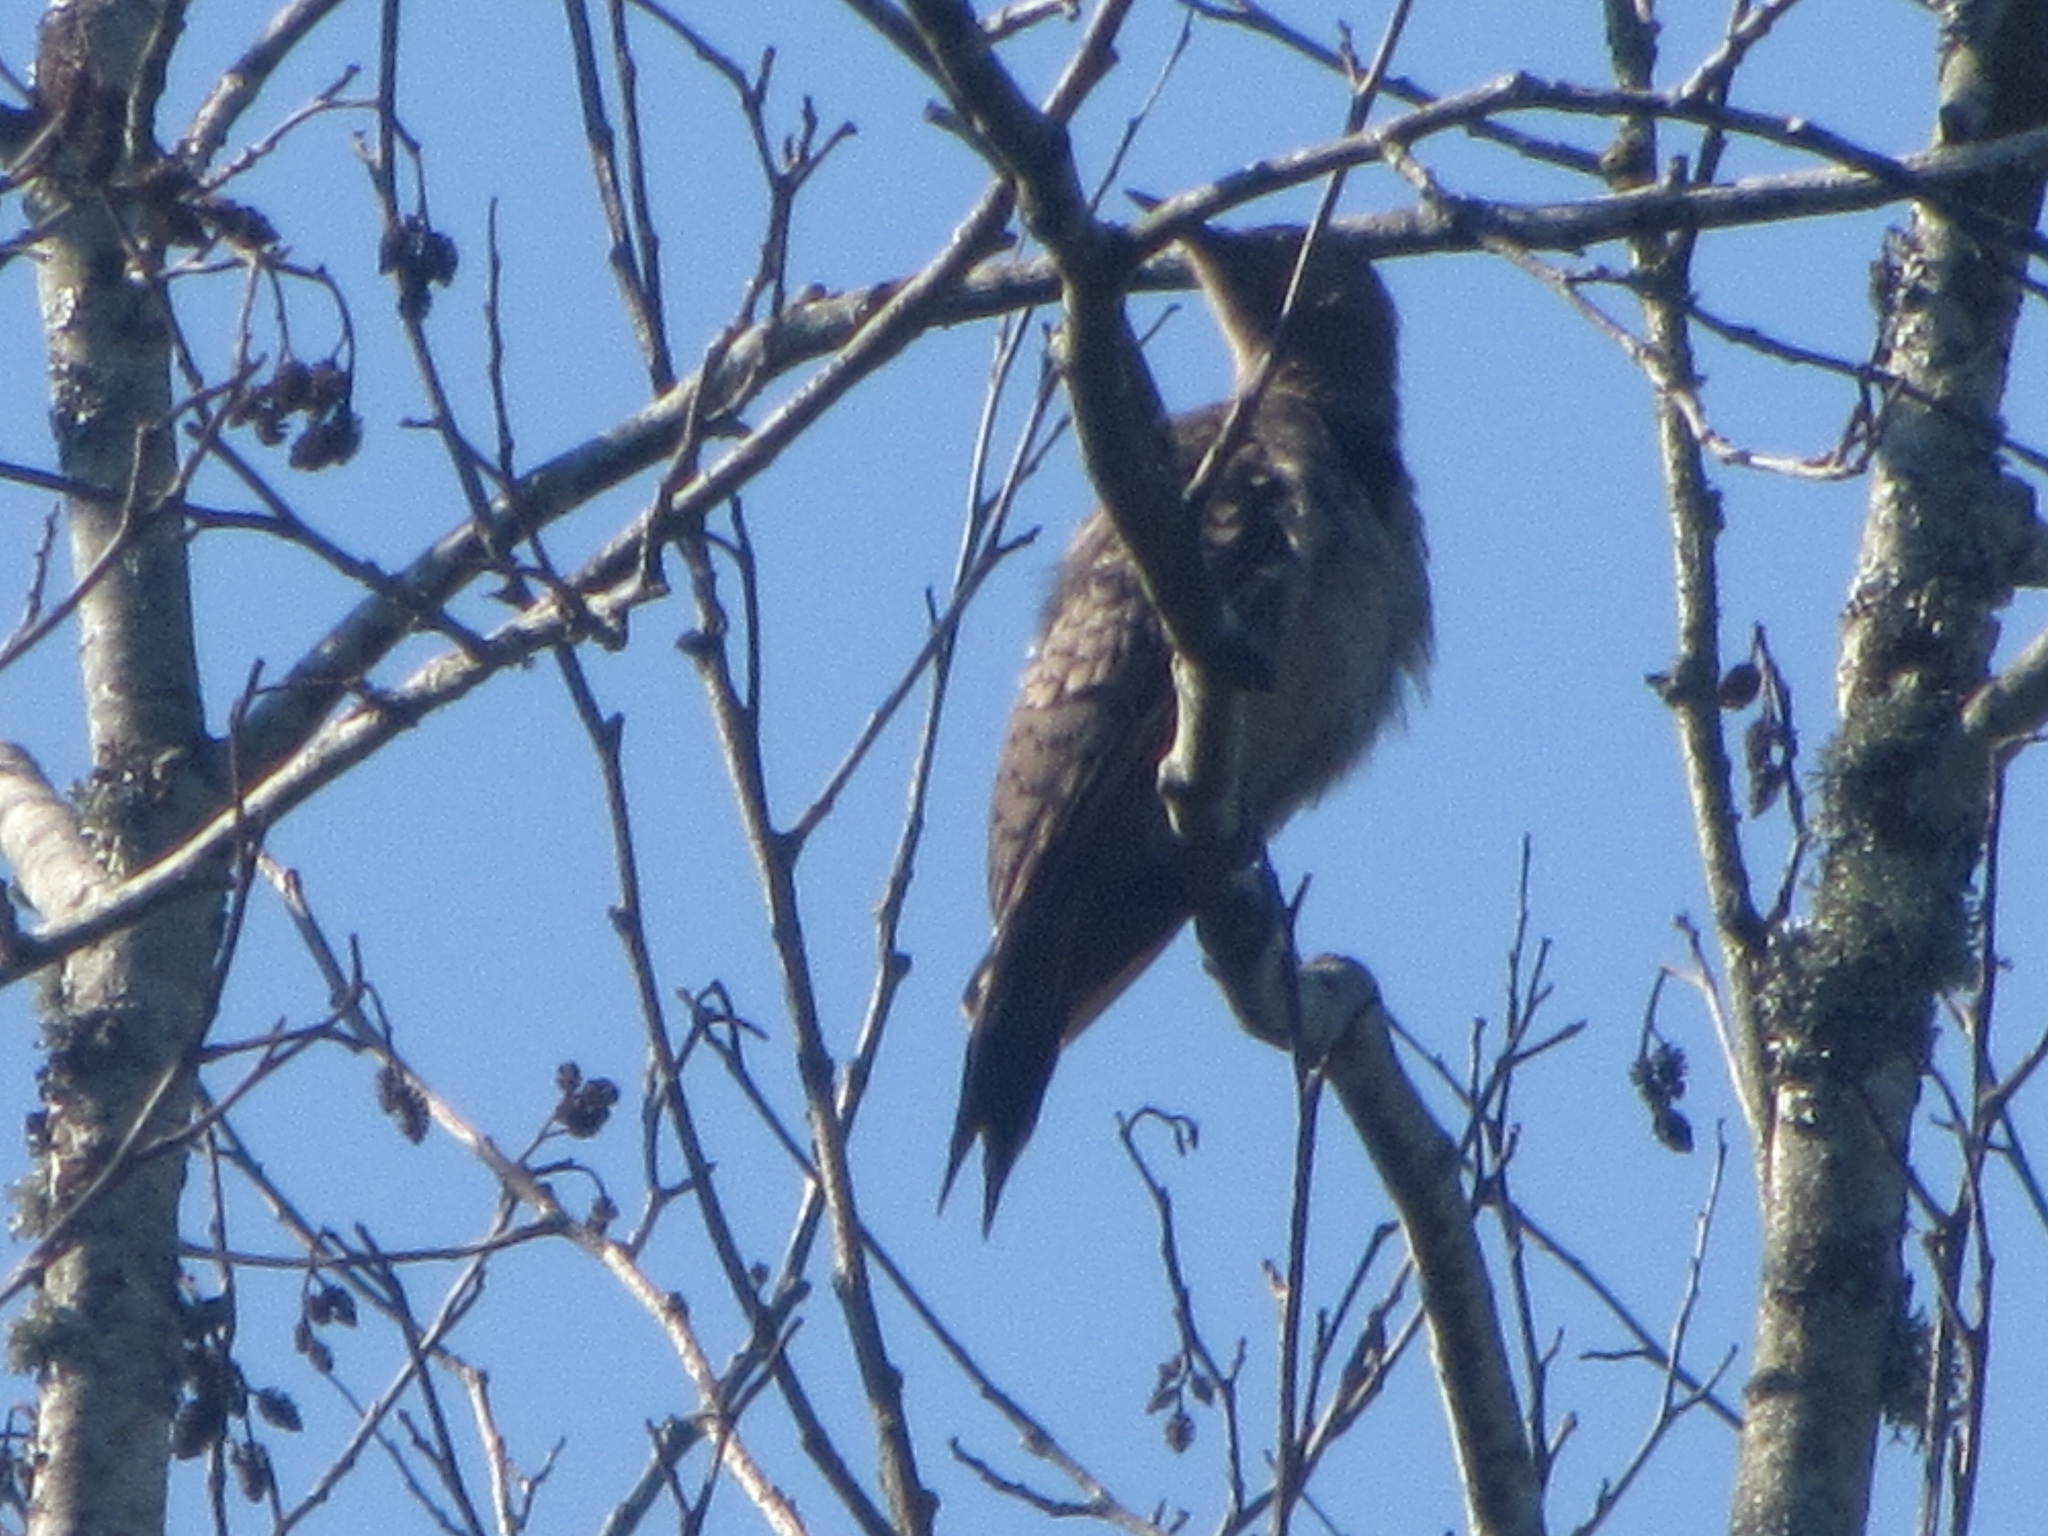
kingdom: Animalia
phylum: Chordata
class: Aves
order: Piciformes
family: Picidae
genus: Colaptes
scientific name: Colaptes auratus
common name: Northern flicker
